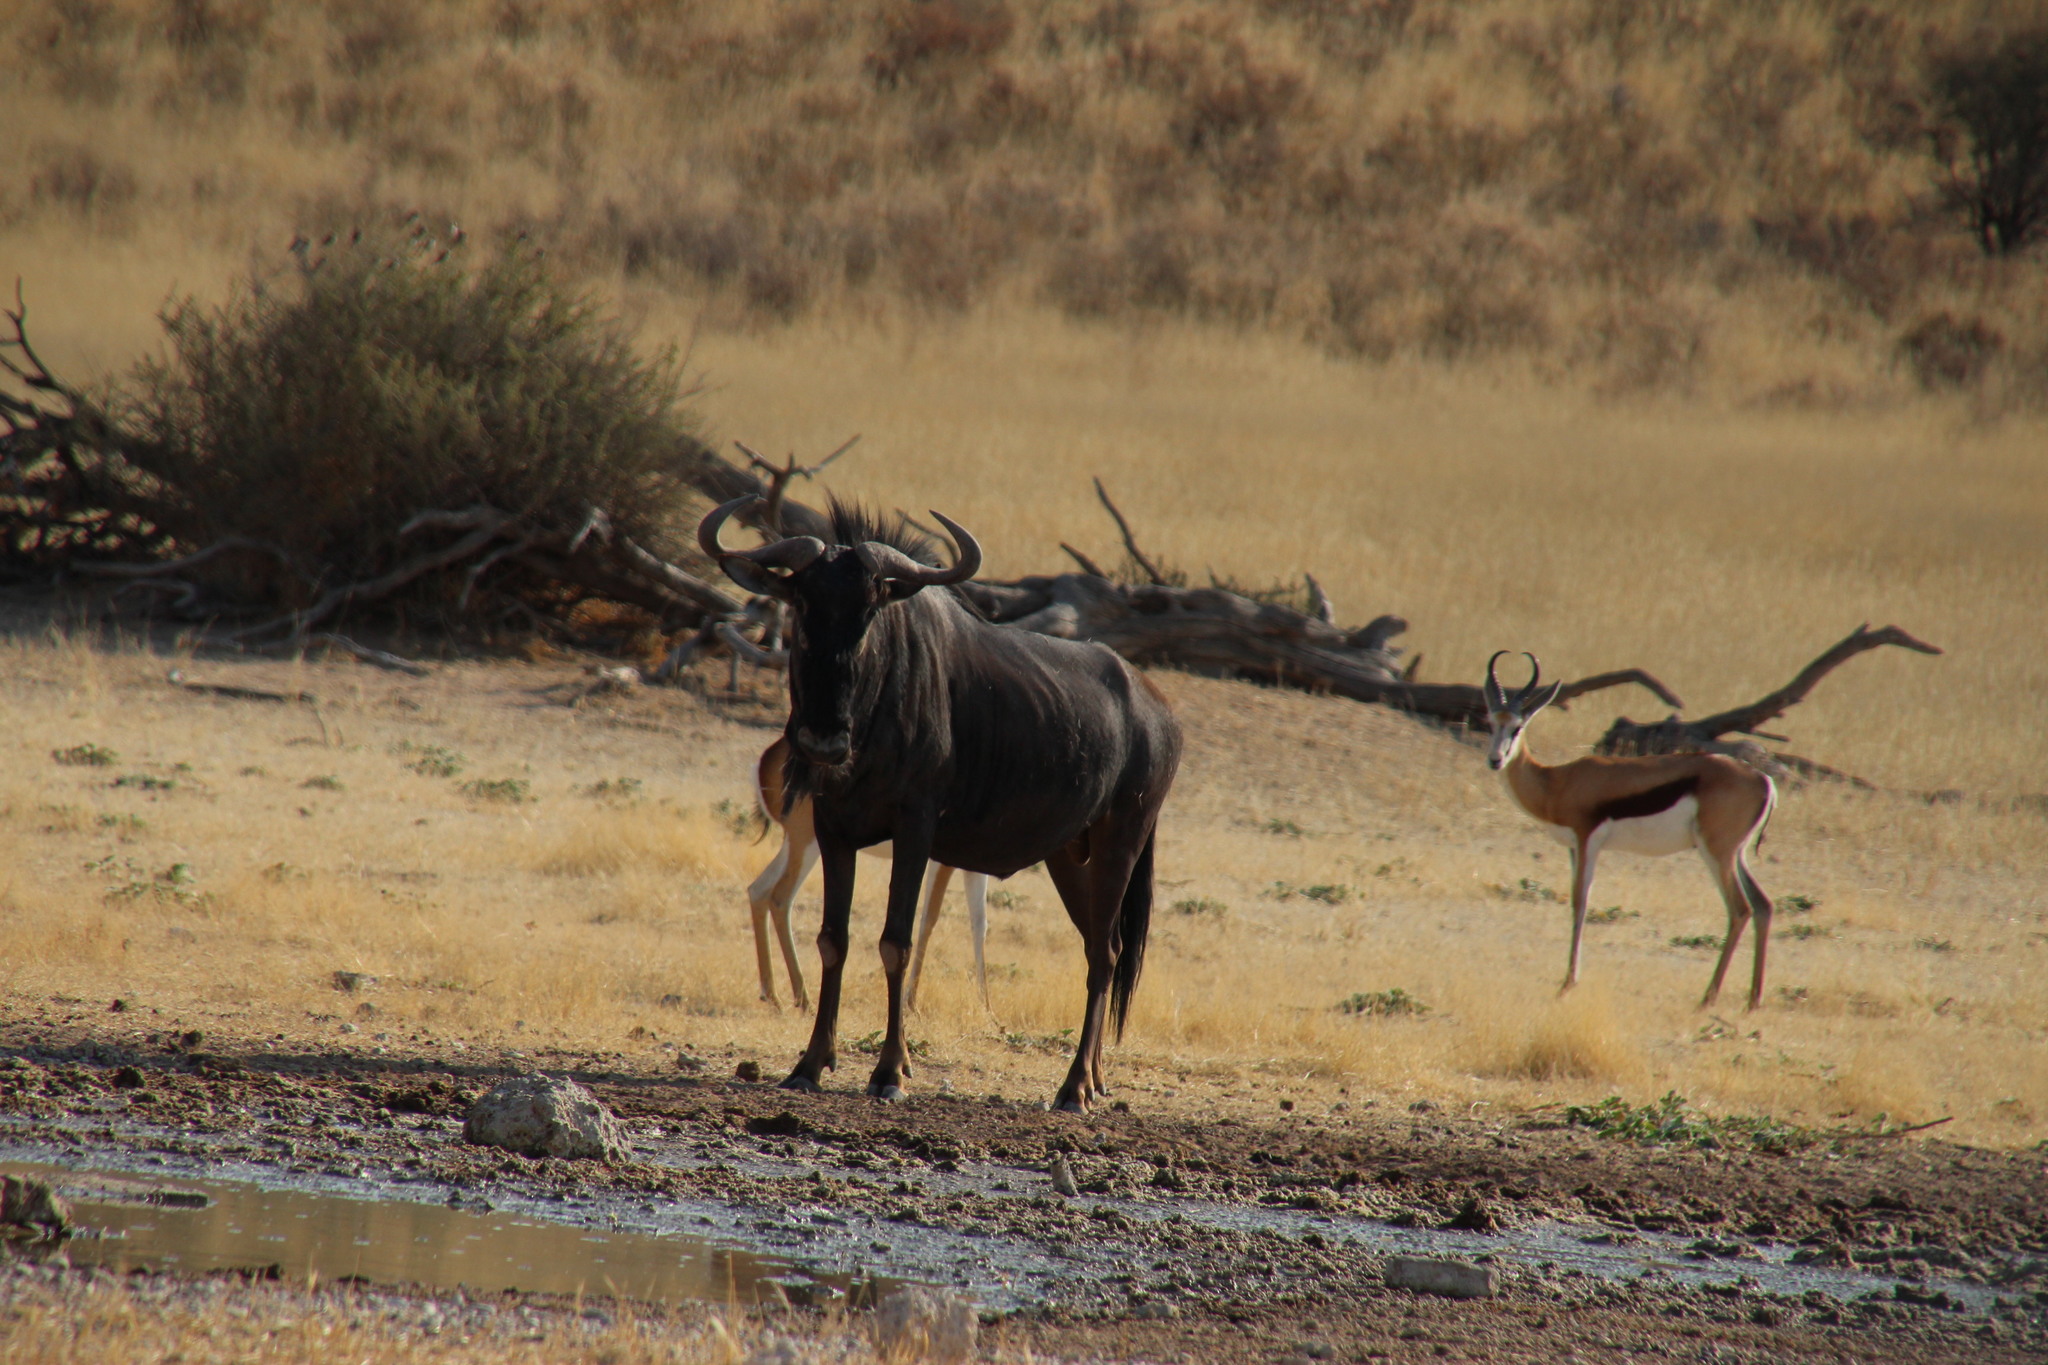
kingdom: Animalia
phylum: Chordata
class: Mammalia
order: Artiodactyla
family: Bovidae
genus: Connochaetes
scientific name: Connochaetes taurinus
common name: Blue wildebeest
